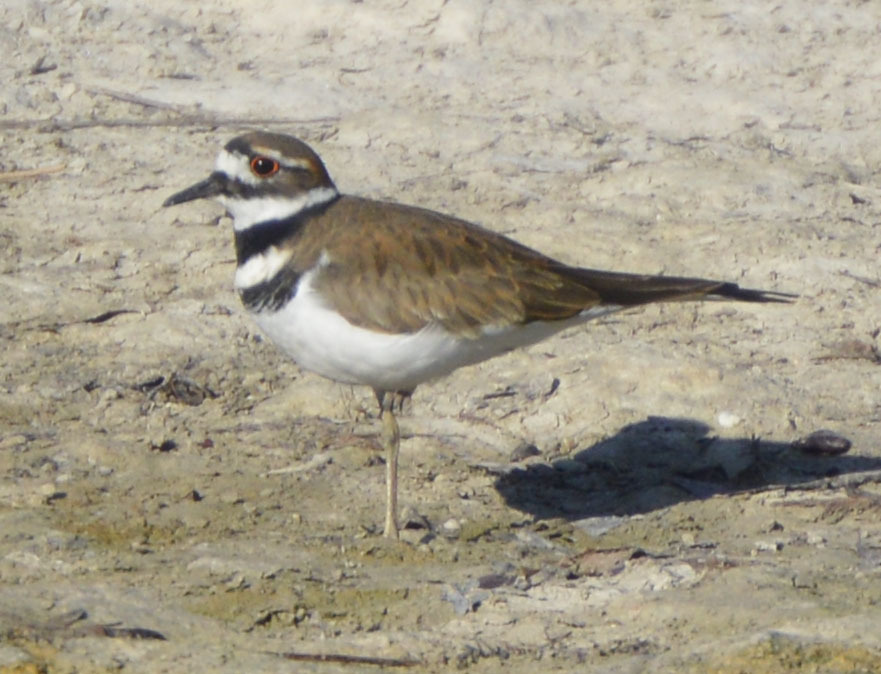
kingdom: Animalia
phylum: Chordata
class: Aves
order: Charadriiformes
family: Charadriidae
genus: Charadrius
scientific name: Charadrius vociferus
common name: Killdeer
